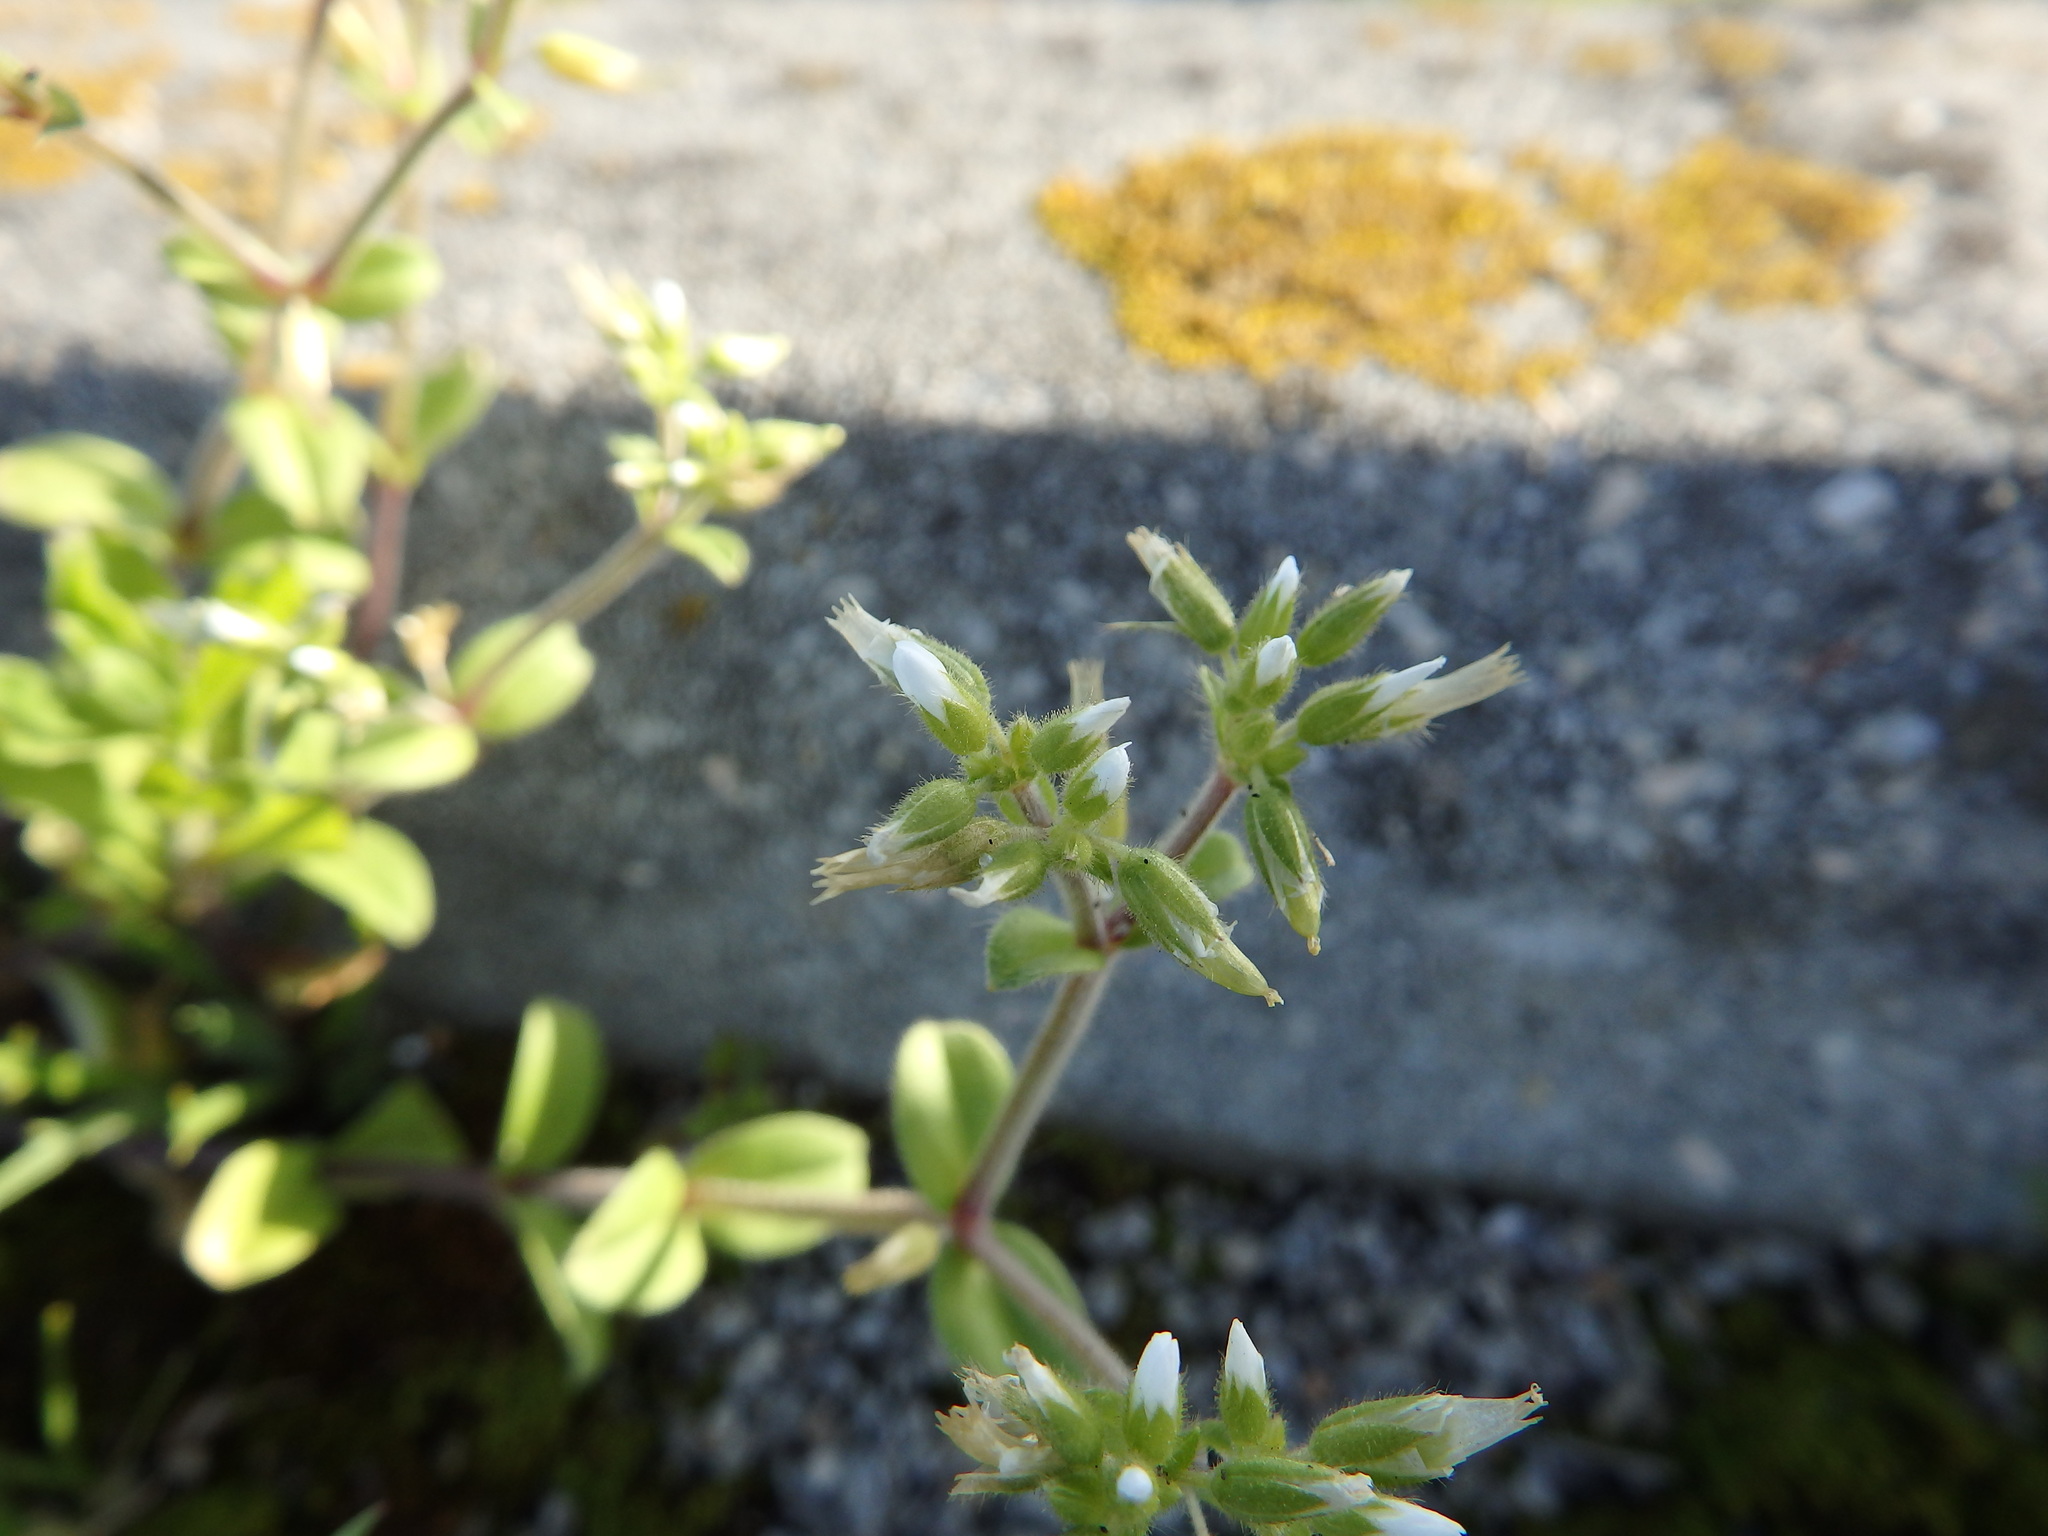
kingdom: Plantae
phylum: Tracheophyta
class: Magnoliopsida
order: Caryophyllales
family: Caryophyllaceae
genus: Cerastium
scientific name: Cerastium glomeratum
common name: Sticky chickweed
